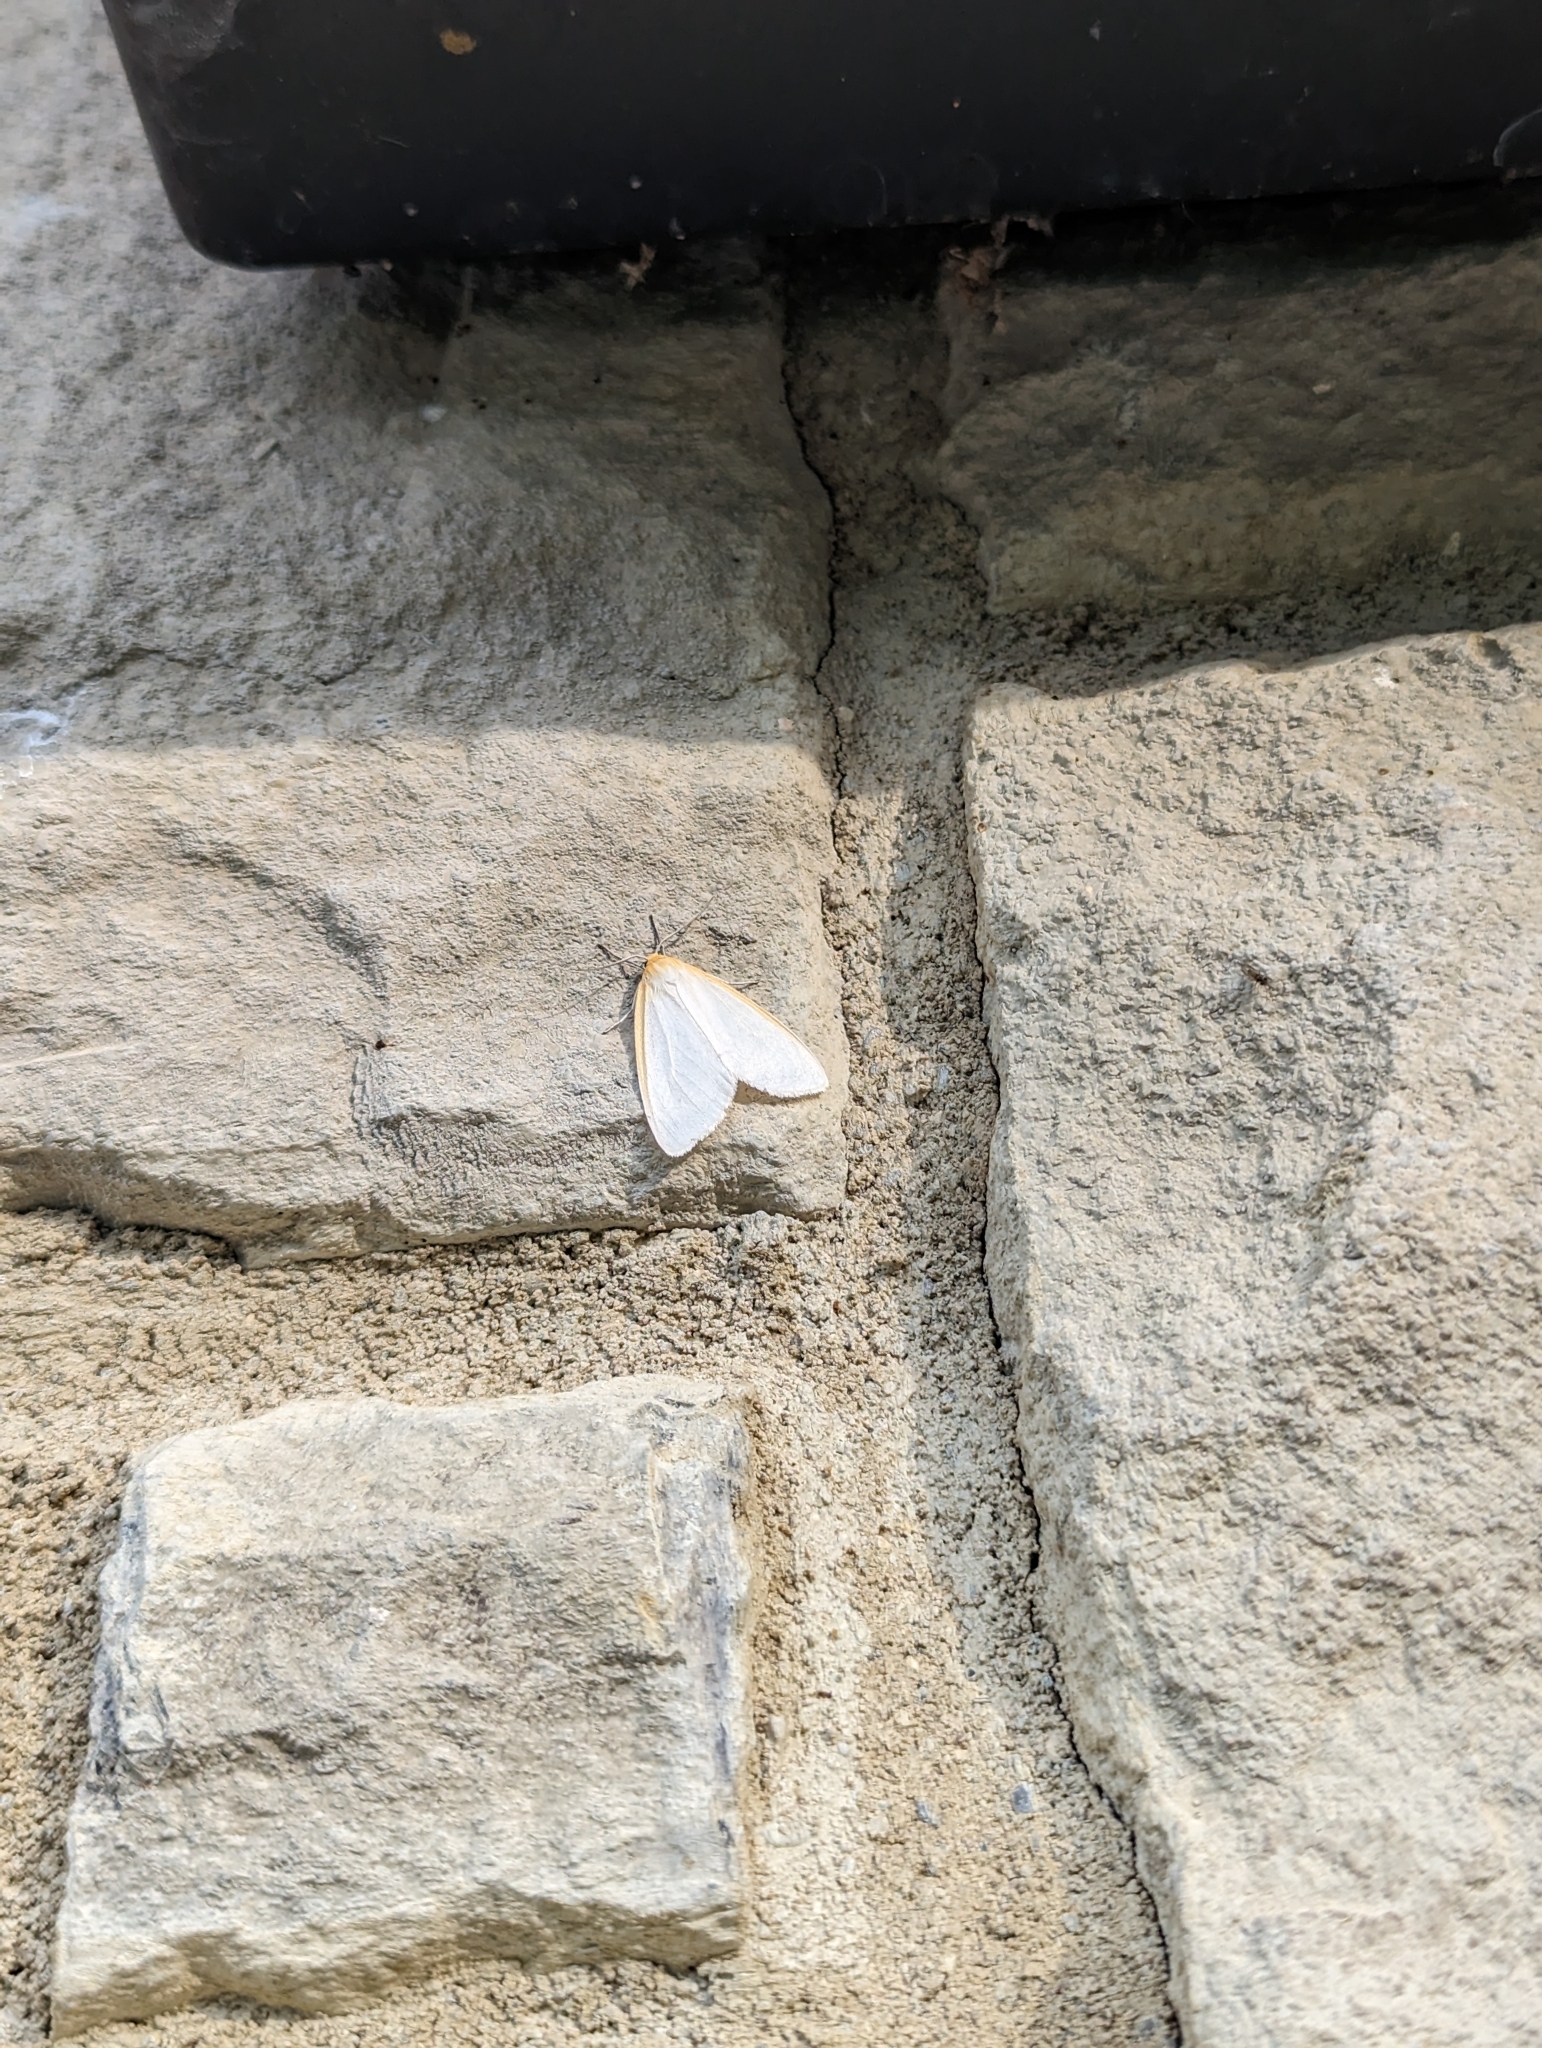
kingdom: Animalia
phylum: Arthropoda
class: Insecta
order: Lepidoptera
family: Erebidae
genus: Cycnia
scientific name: Cycnia tenera
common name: Delicate cycnia moth
